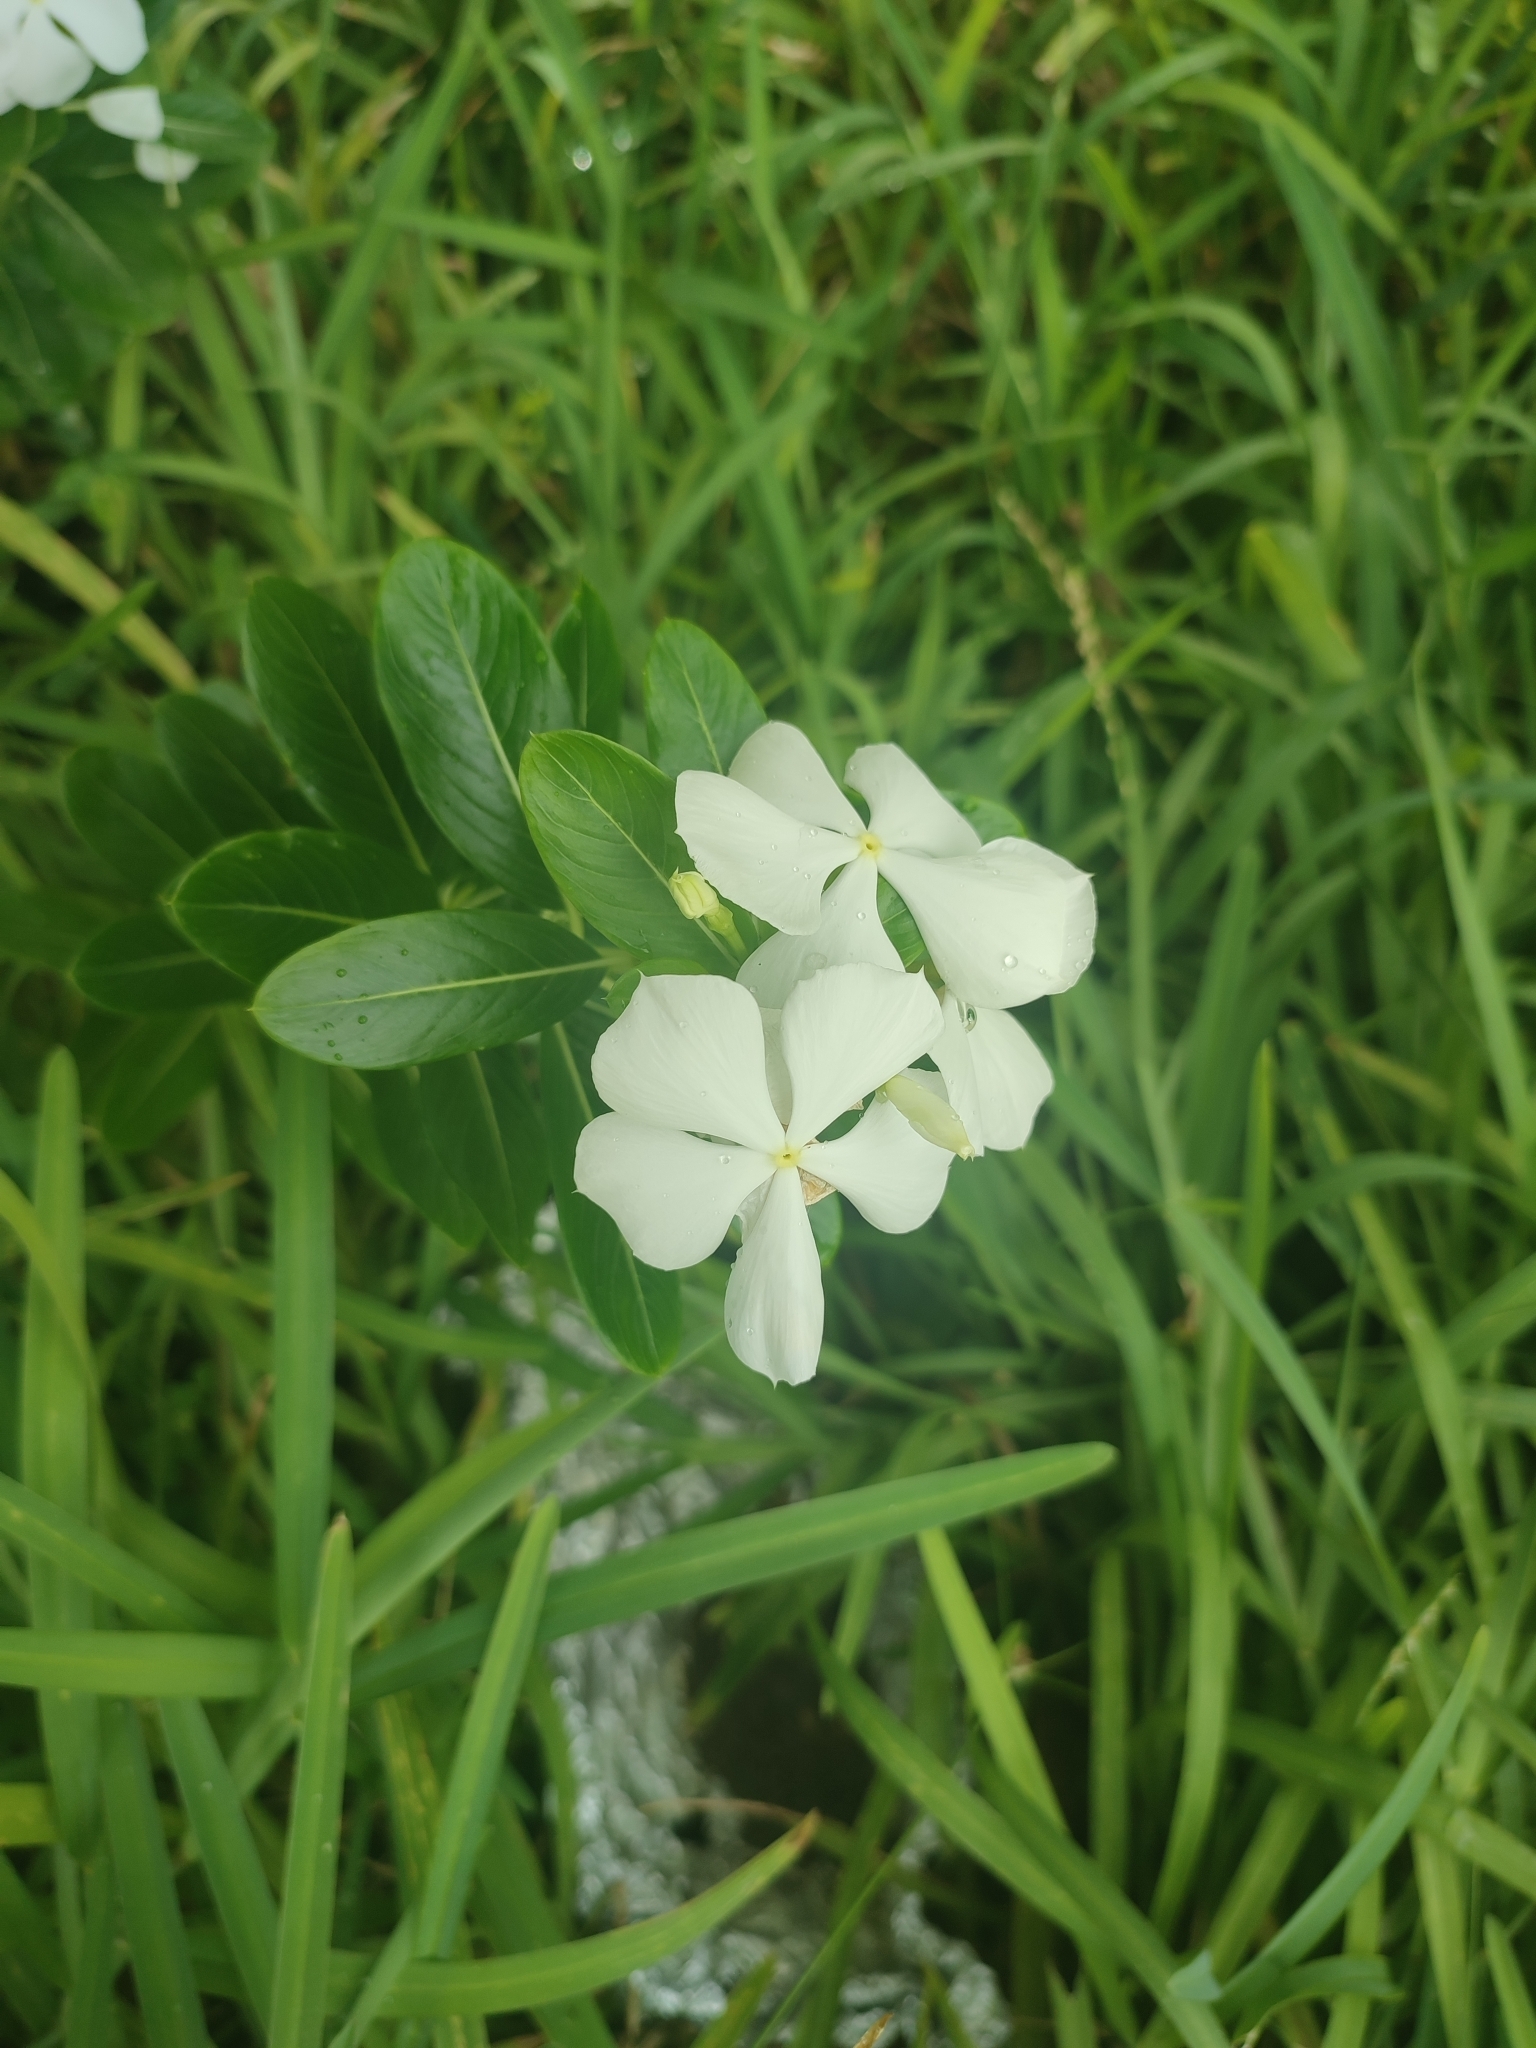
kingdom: Plantae
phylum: Tracheophyta
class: Magnoliopsida
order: Gentianales
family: Apocynaceae
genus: Catharanthus
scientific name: Catharanthus roseus
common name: Madagascar periwinkle
